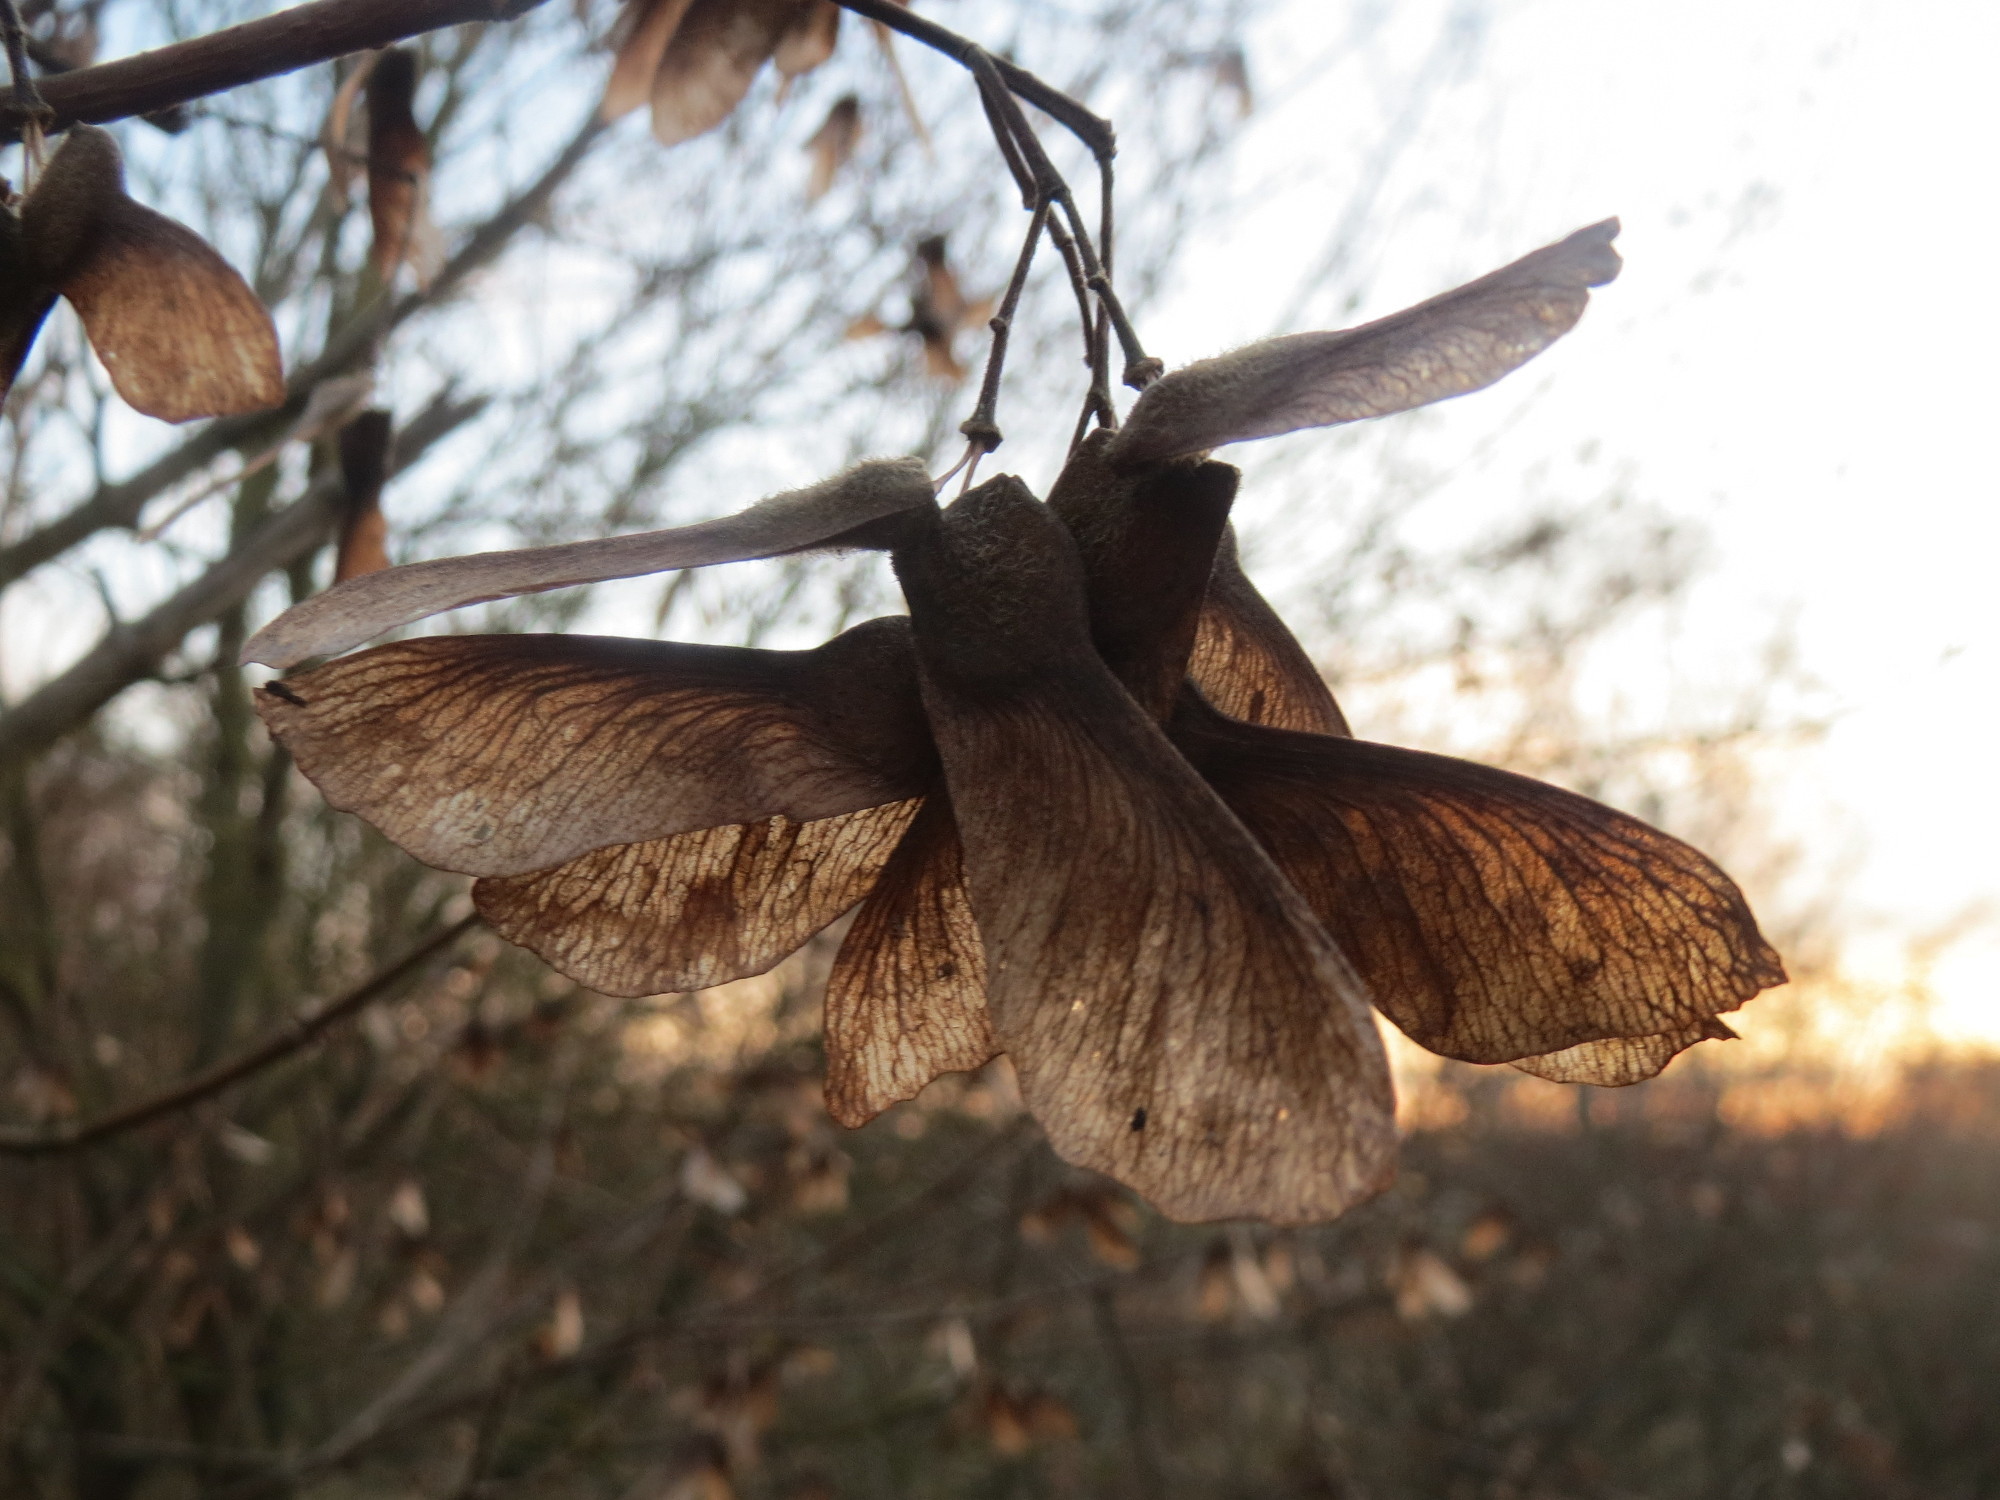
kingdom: Plantae
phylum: Tracheophyta
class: Magnoliopsida
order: Sapindales
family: Sapindaceae
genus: Acer
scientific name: Acer campestre
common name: Field maple
